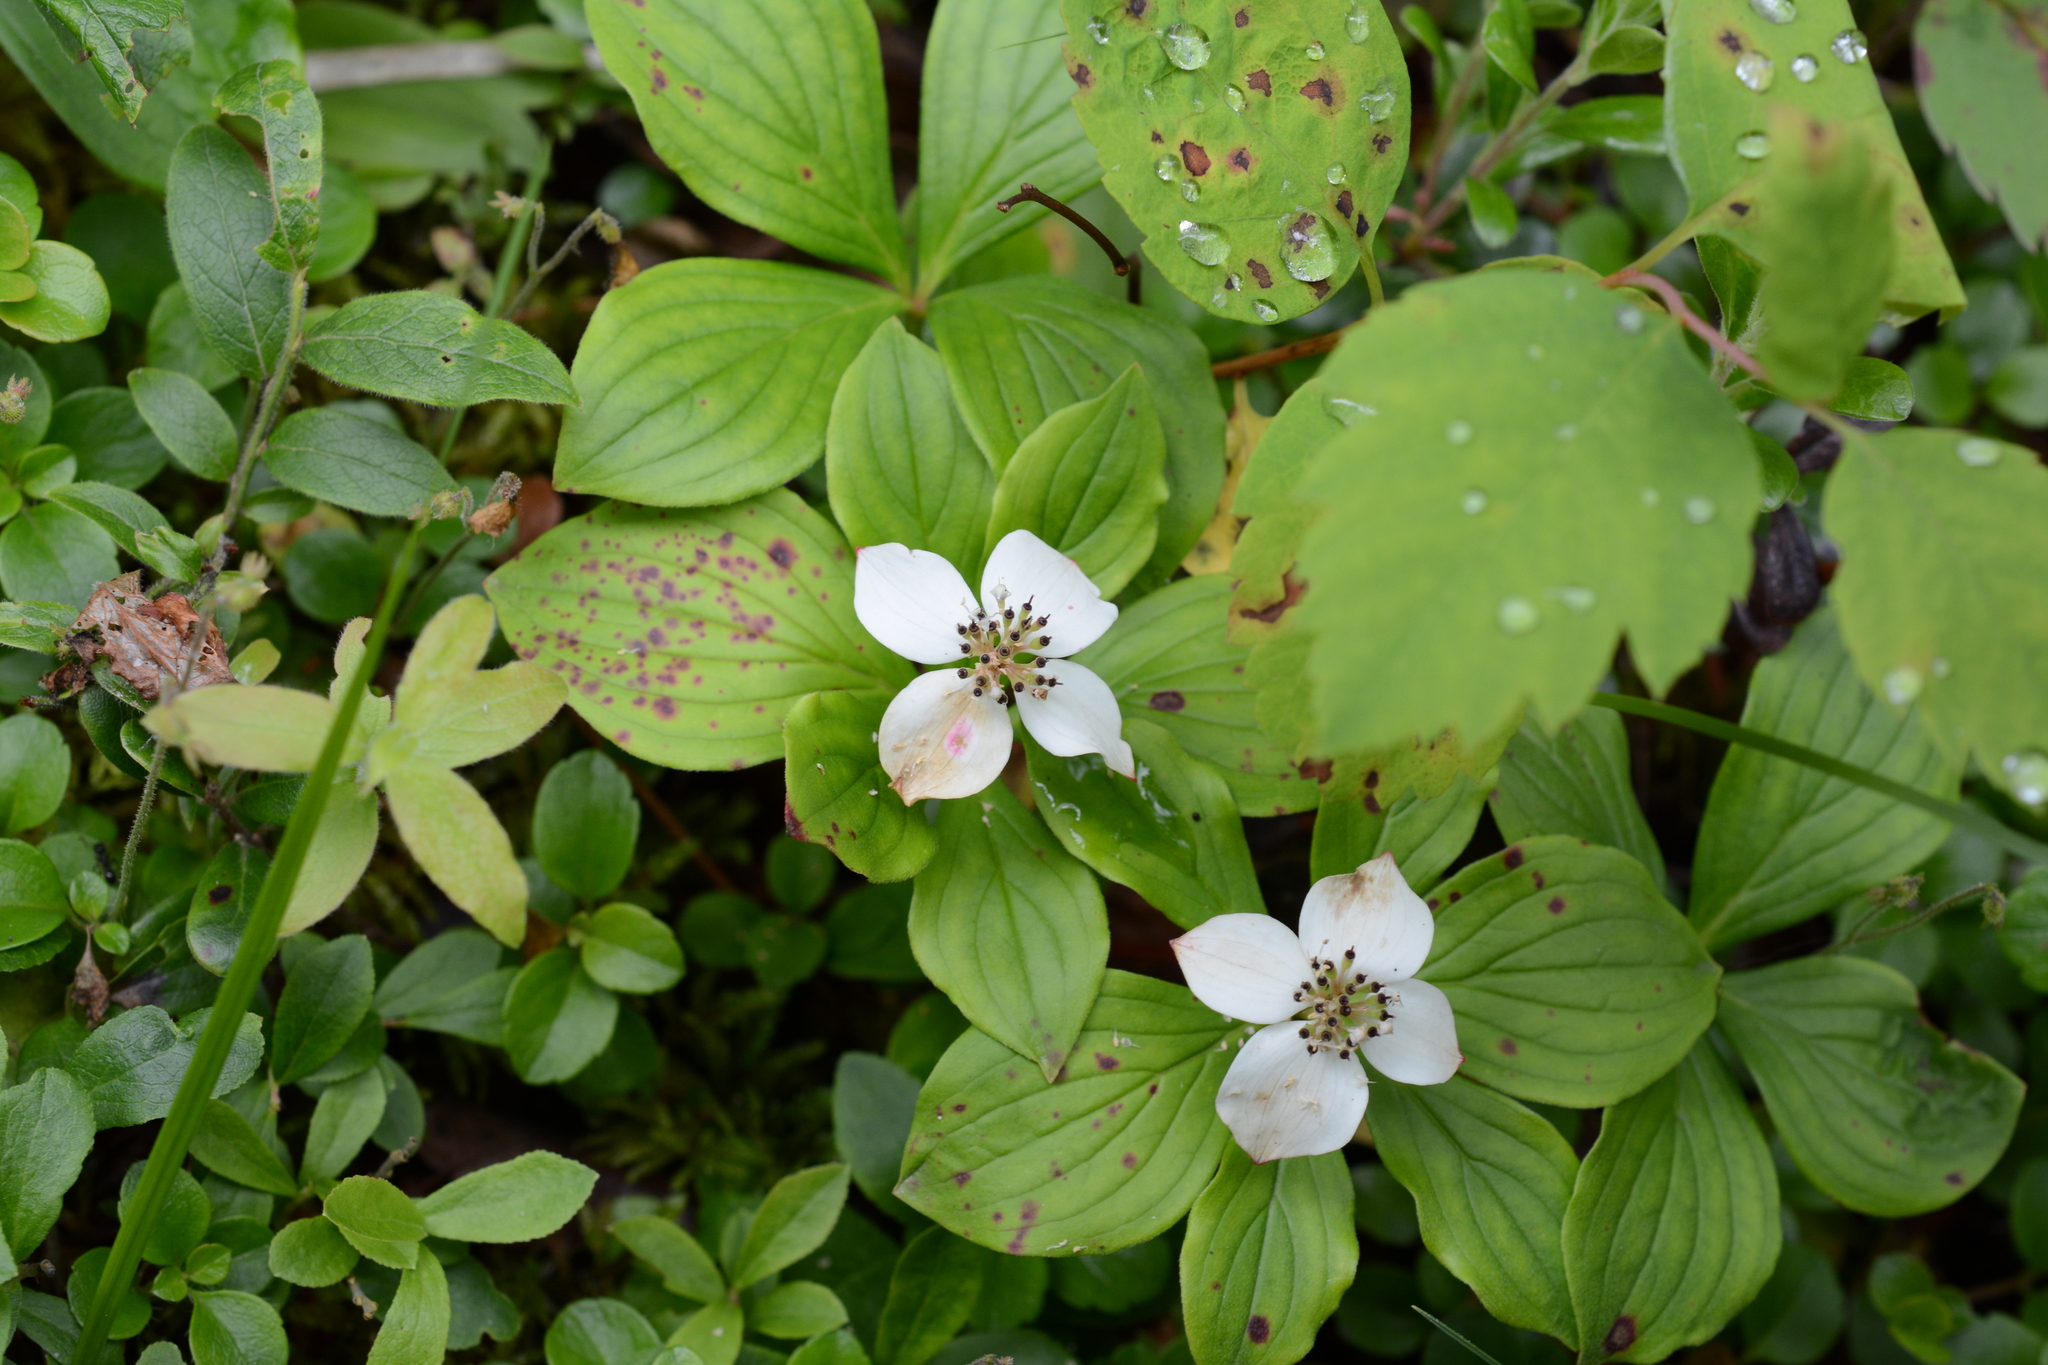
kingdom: Plantae
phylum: Tracheophyta
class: Magnoliopsida
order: Cornales
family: Cornaceae
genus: Cornus
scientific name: Cornus canadensis
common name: Creeping dogwood
